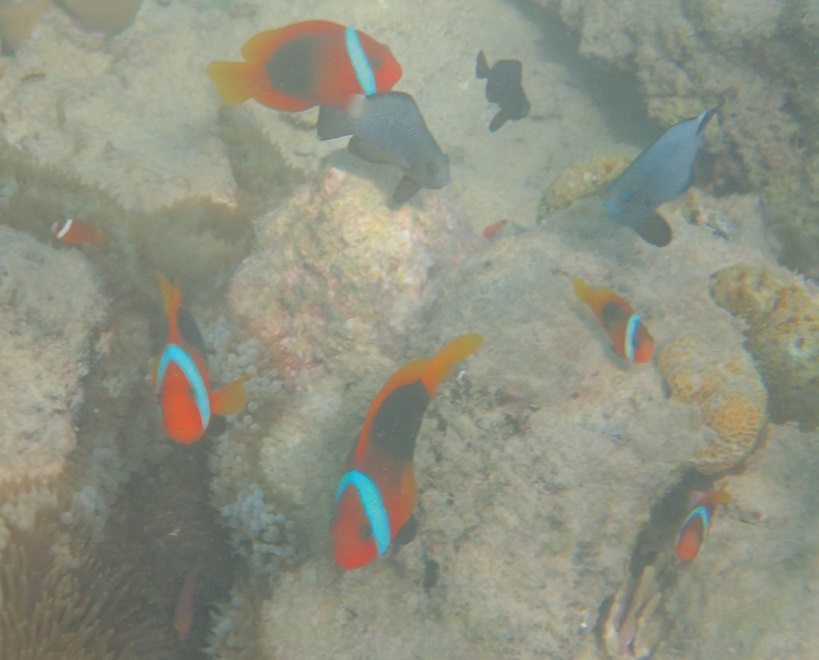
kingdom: Animalia
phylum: Chordata
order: Perciformes
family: Pomacentridae
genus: Amphiprion
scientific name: Amphiprion melanopus
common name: Black anemonefish
